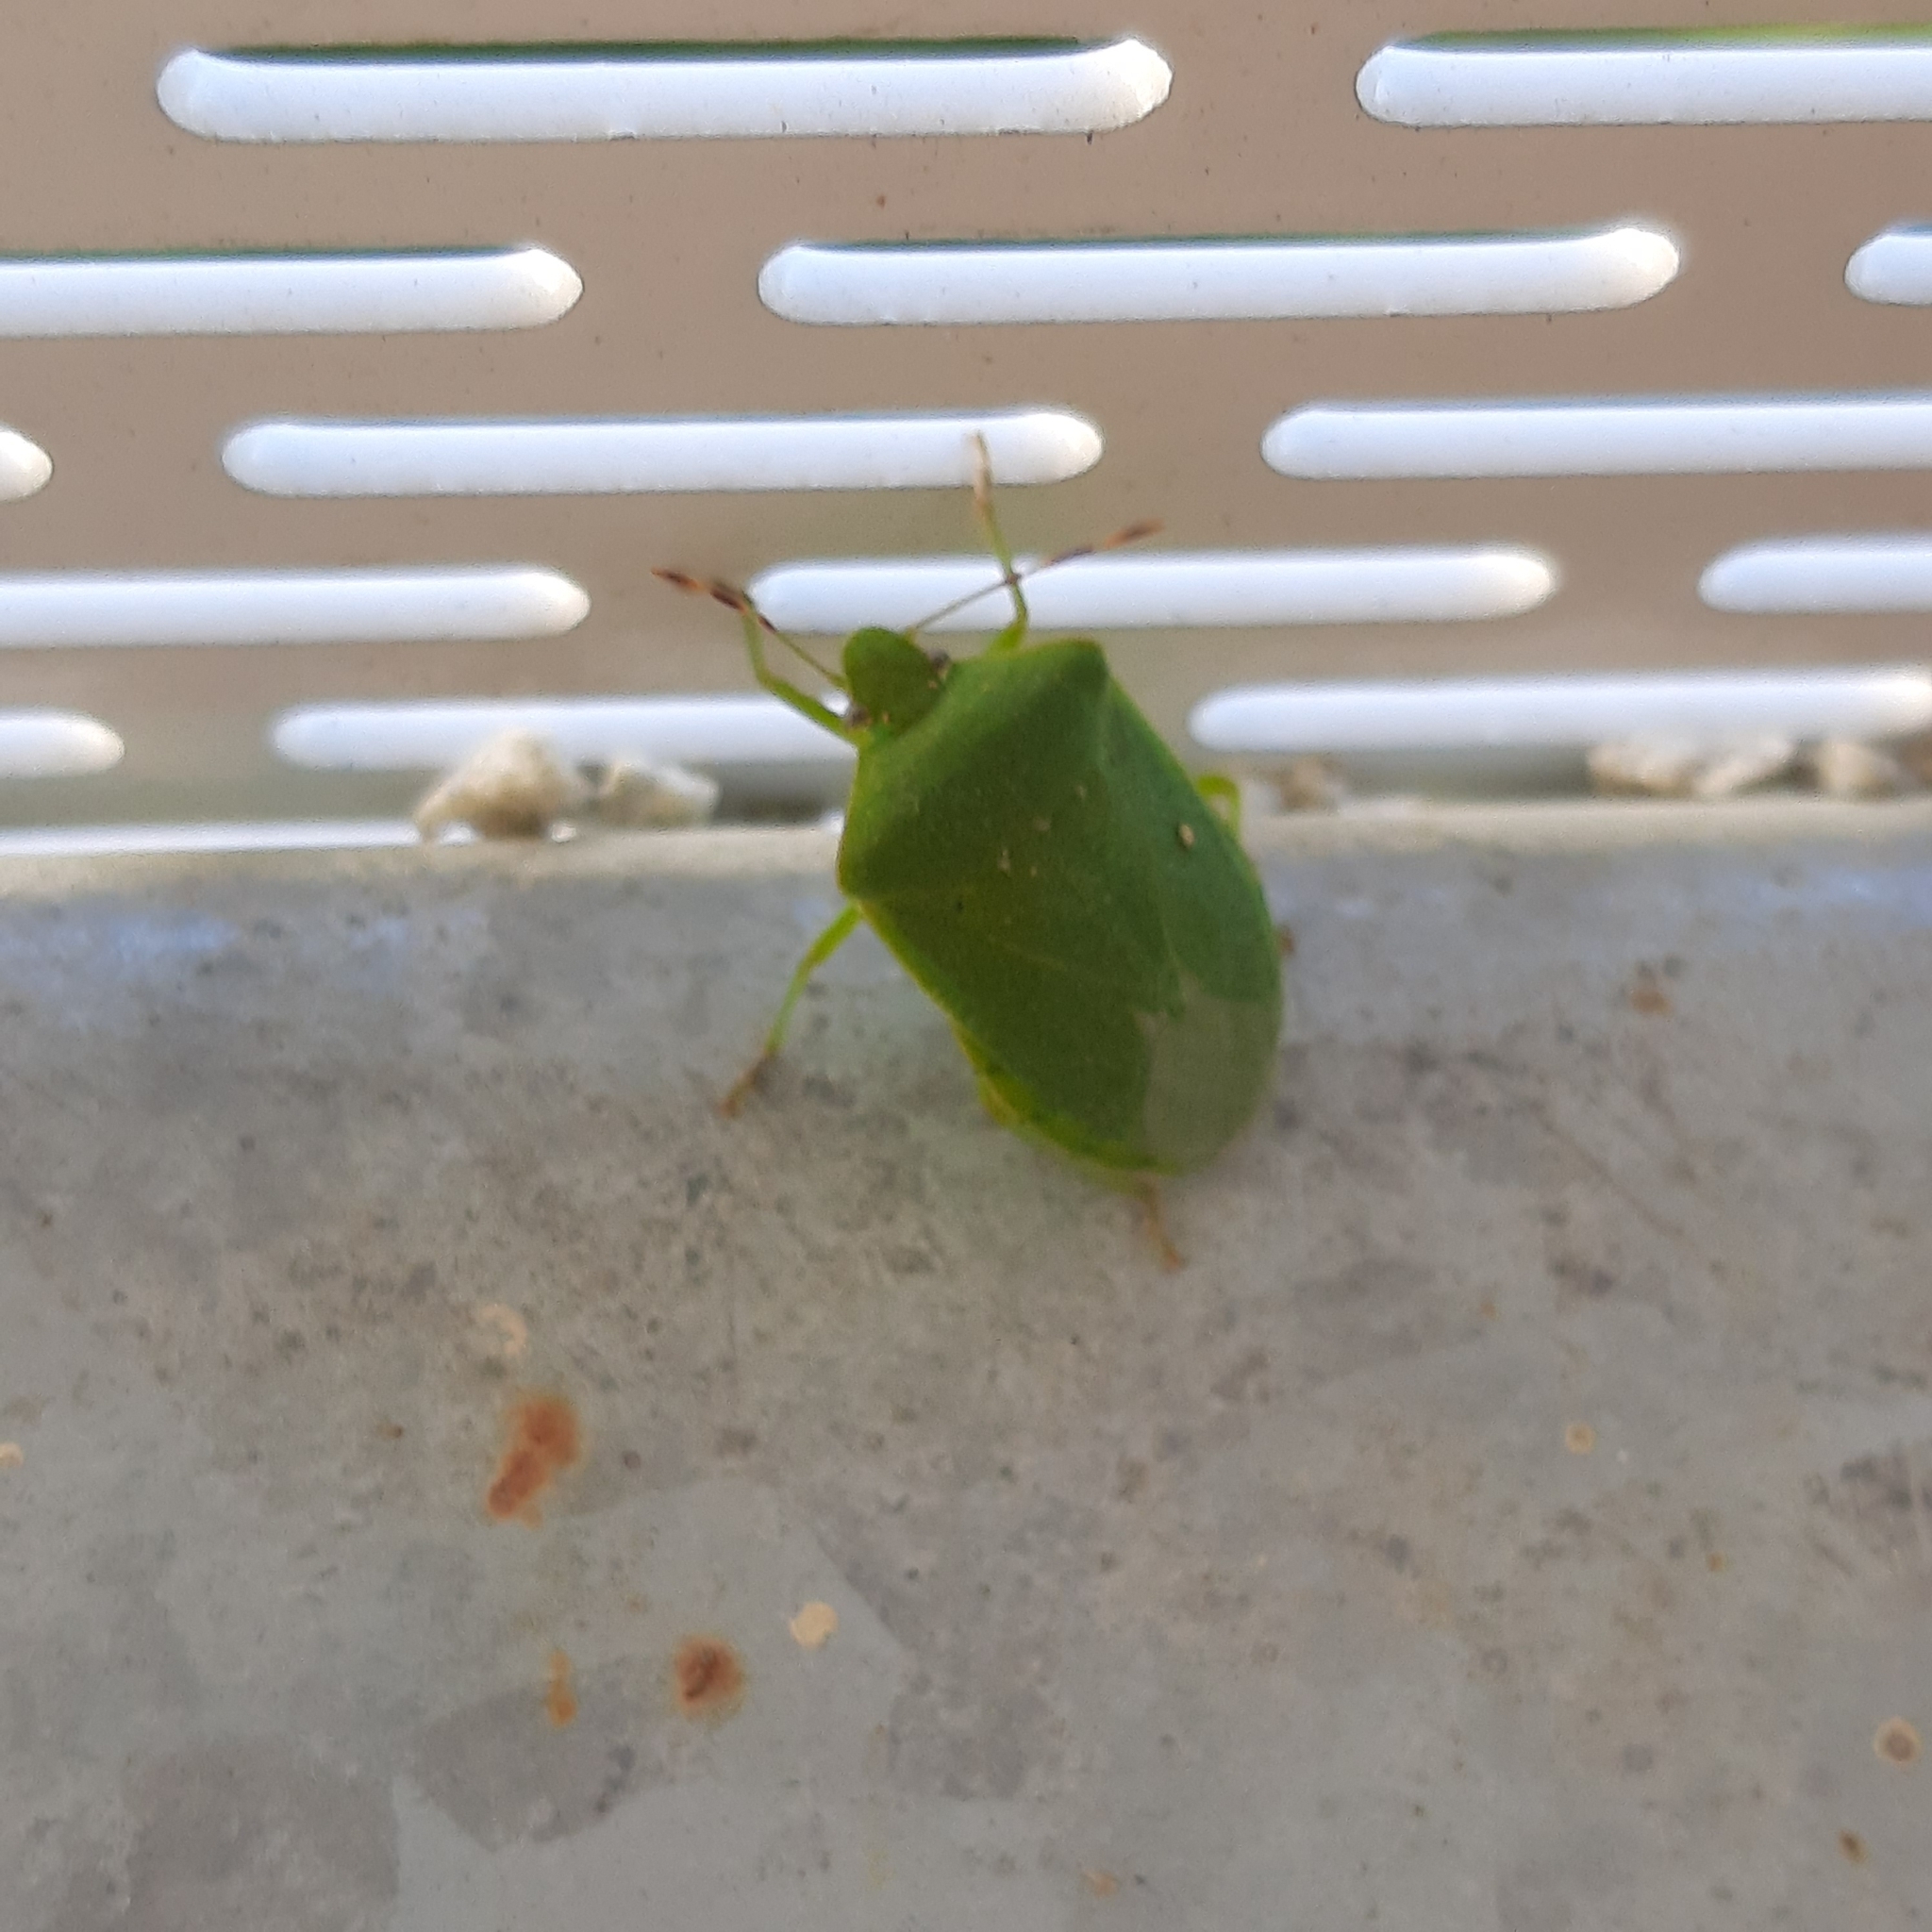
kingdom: Animalia
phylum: Arthropoda
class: Insecta
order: Hemiptera
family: Pentatomidae
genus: Nezara
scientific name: Nezara viridula
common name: Southern green stink bug
